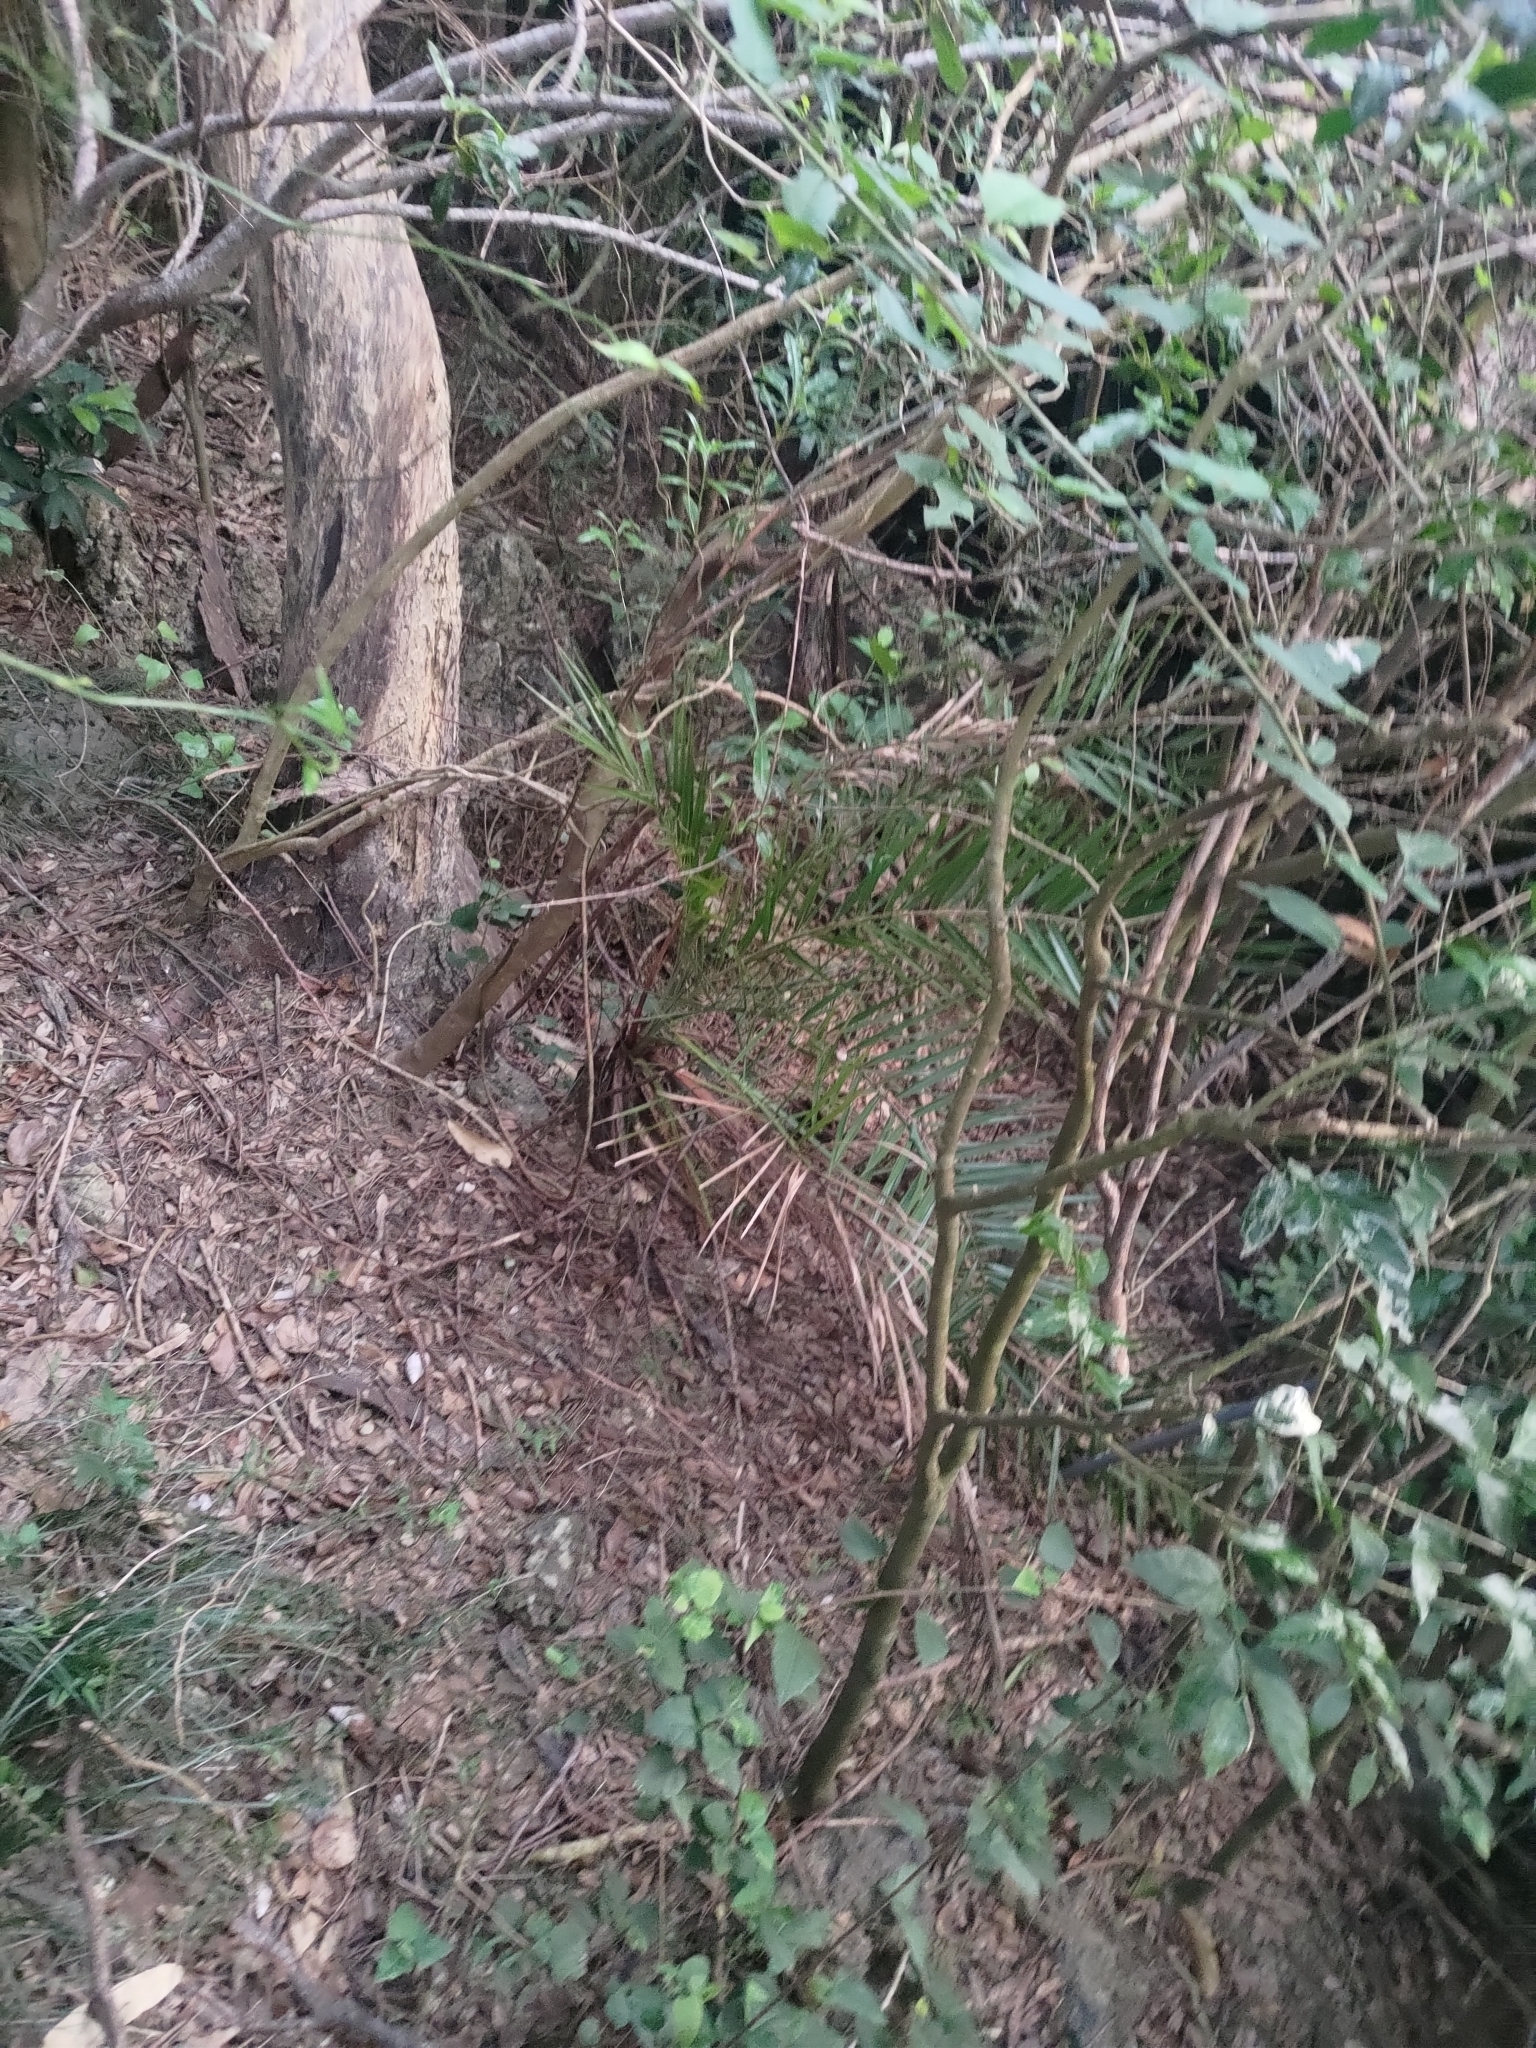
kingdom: Plantae
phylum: Tracheophyta
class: Liliopsida
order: Arecales
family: Arecaceae
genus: Phoenix
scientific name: Phoenix loureiroi
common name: Loureiro's palm
